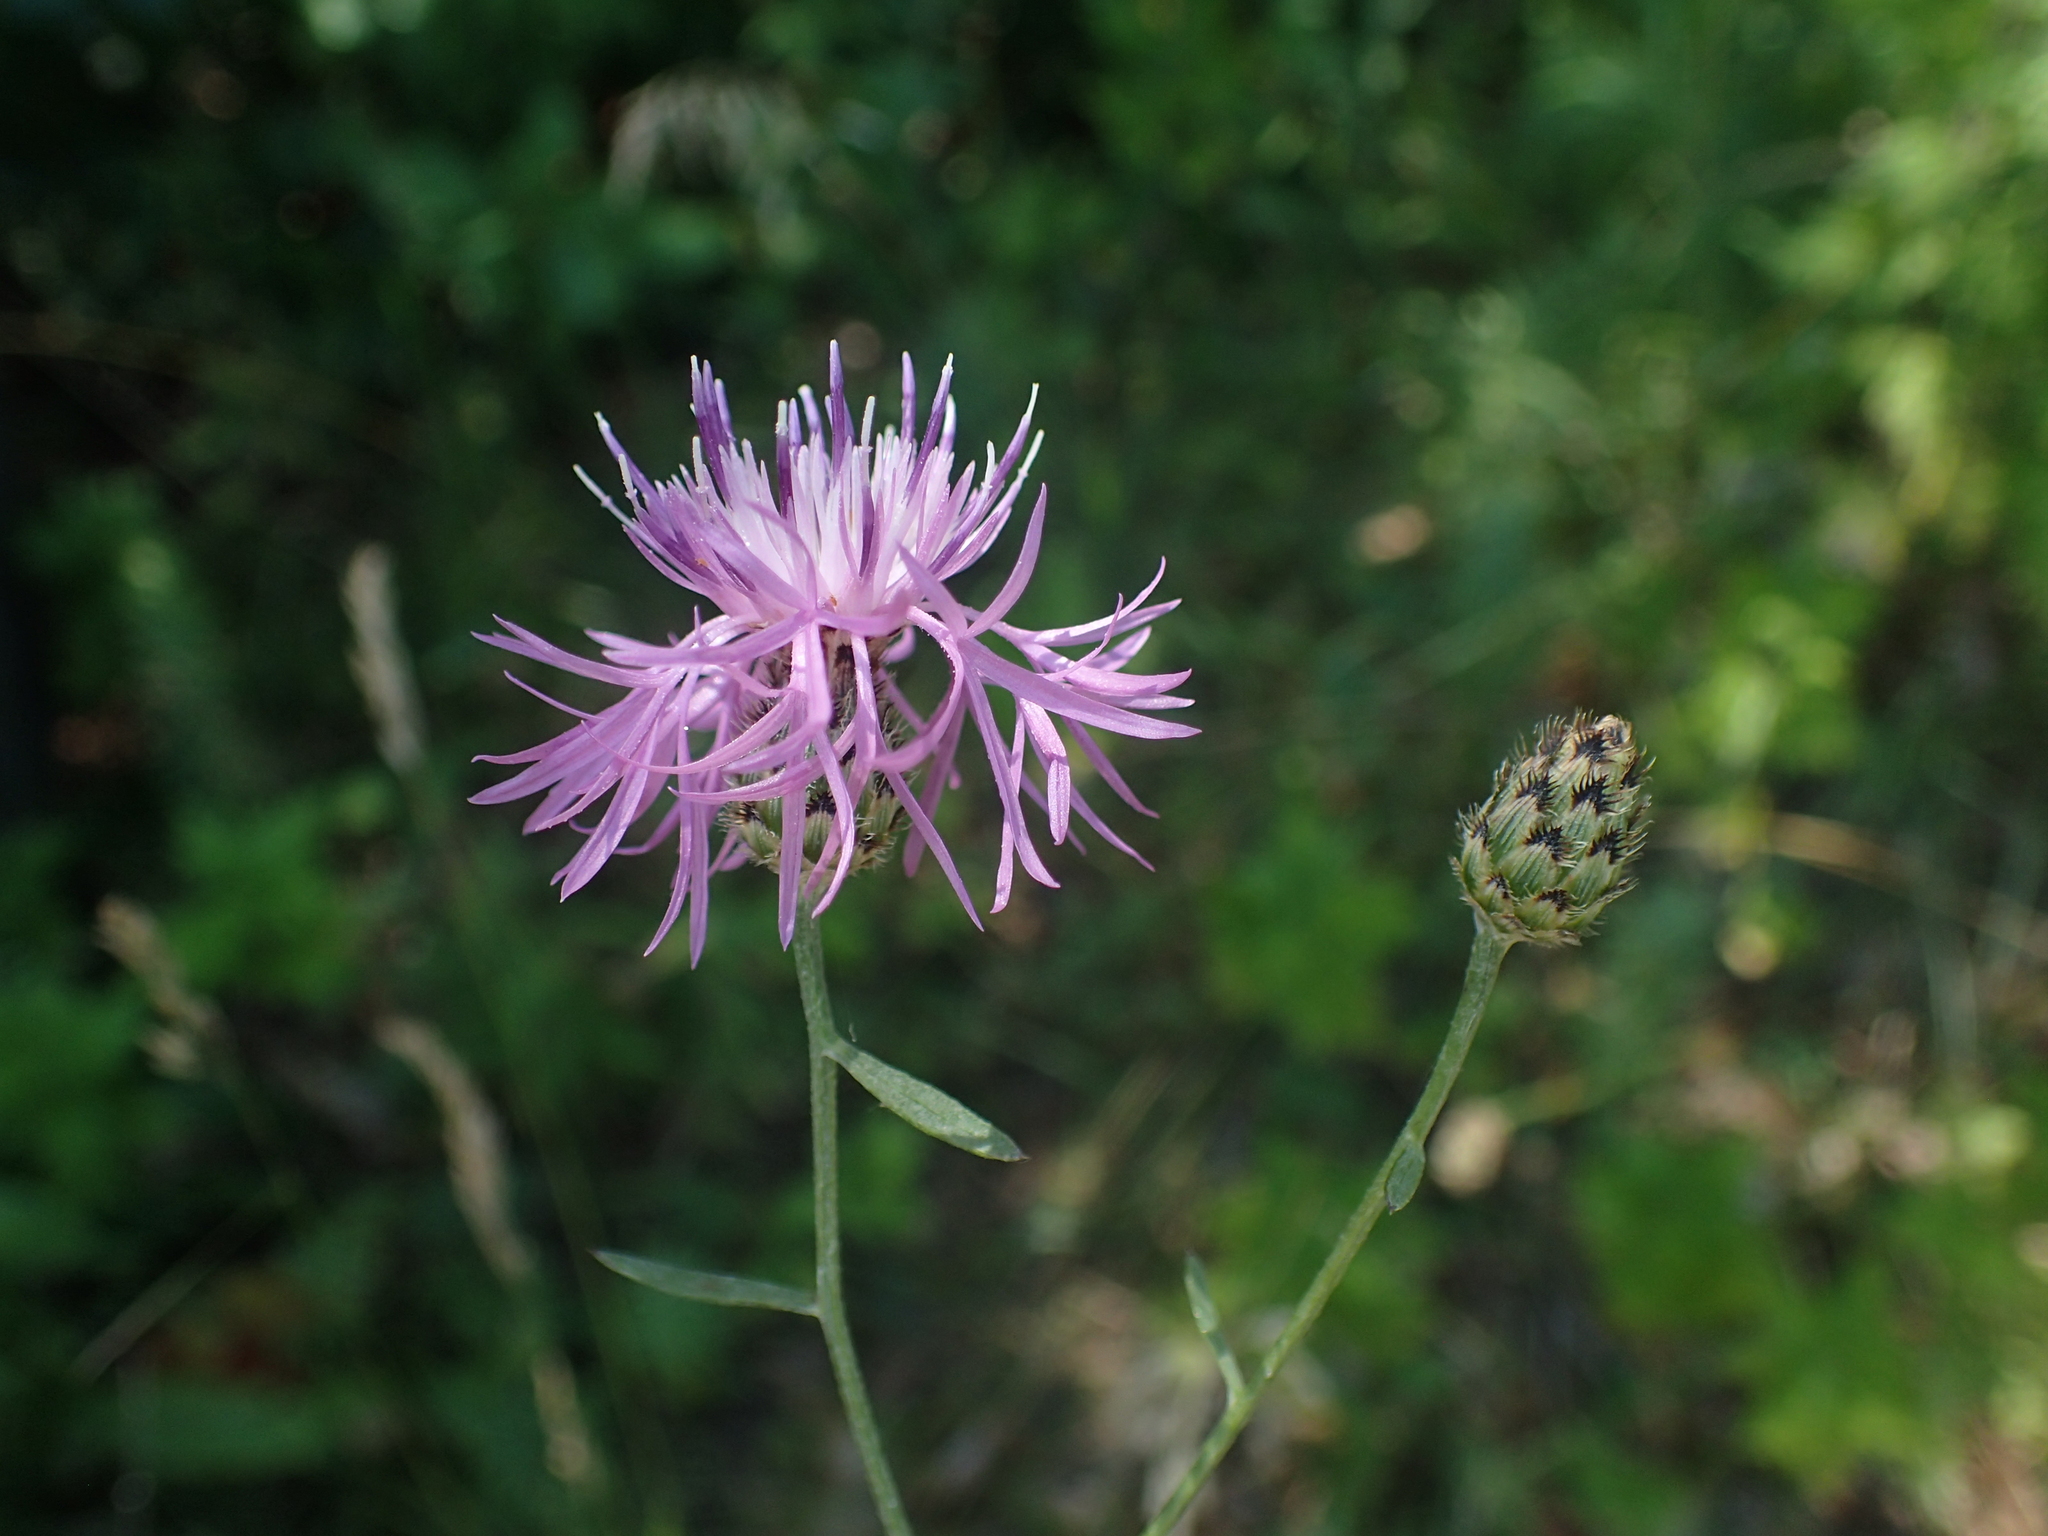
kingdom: Plantae
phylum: Tracheophyta
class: Magnoliopsida
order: Asterales
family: Asteraceae
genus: Centaurea
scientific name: Centaurea stoebe
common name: Spotted knapweed
